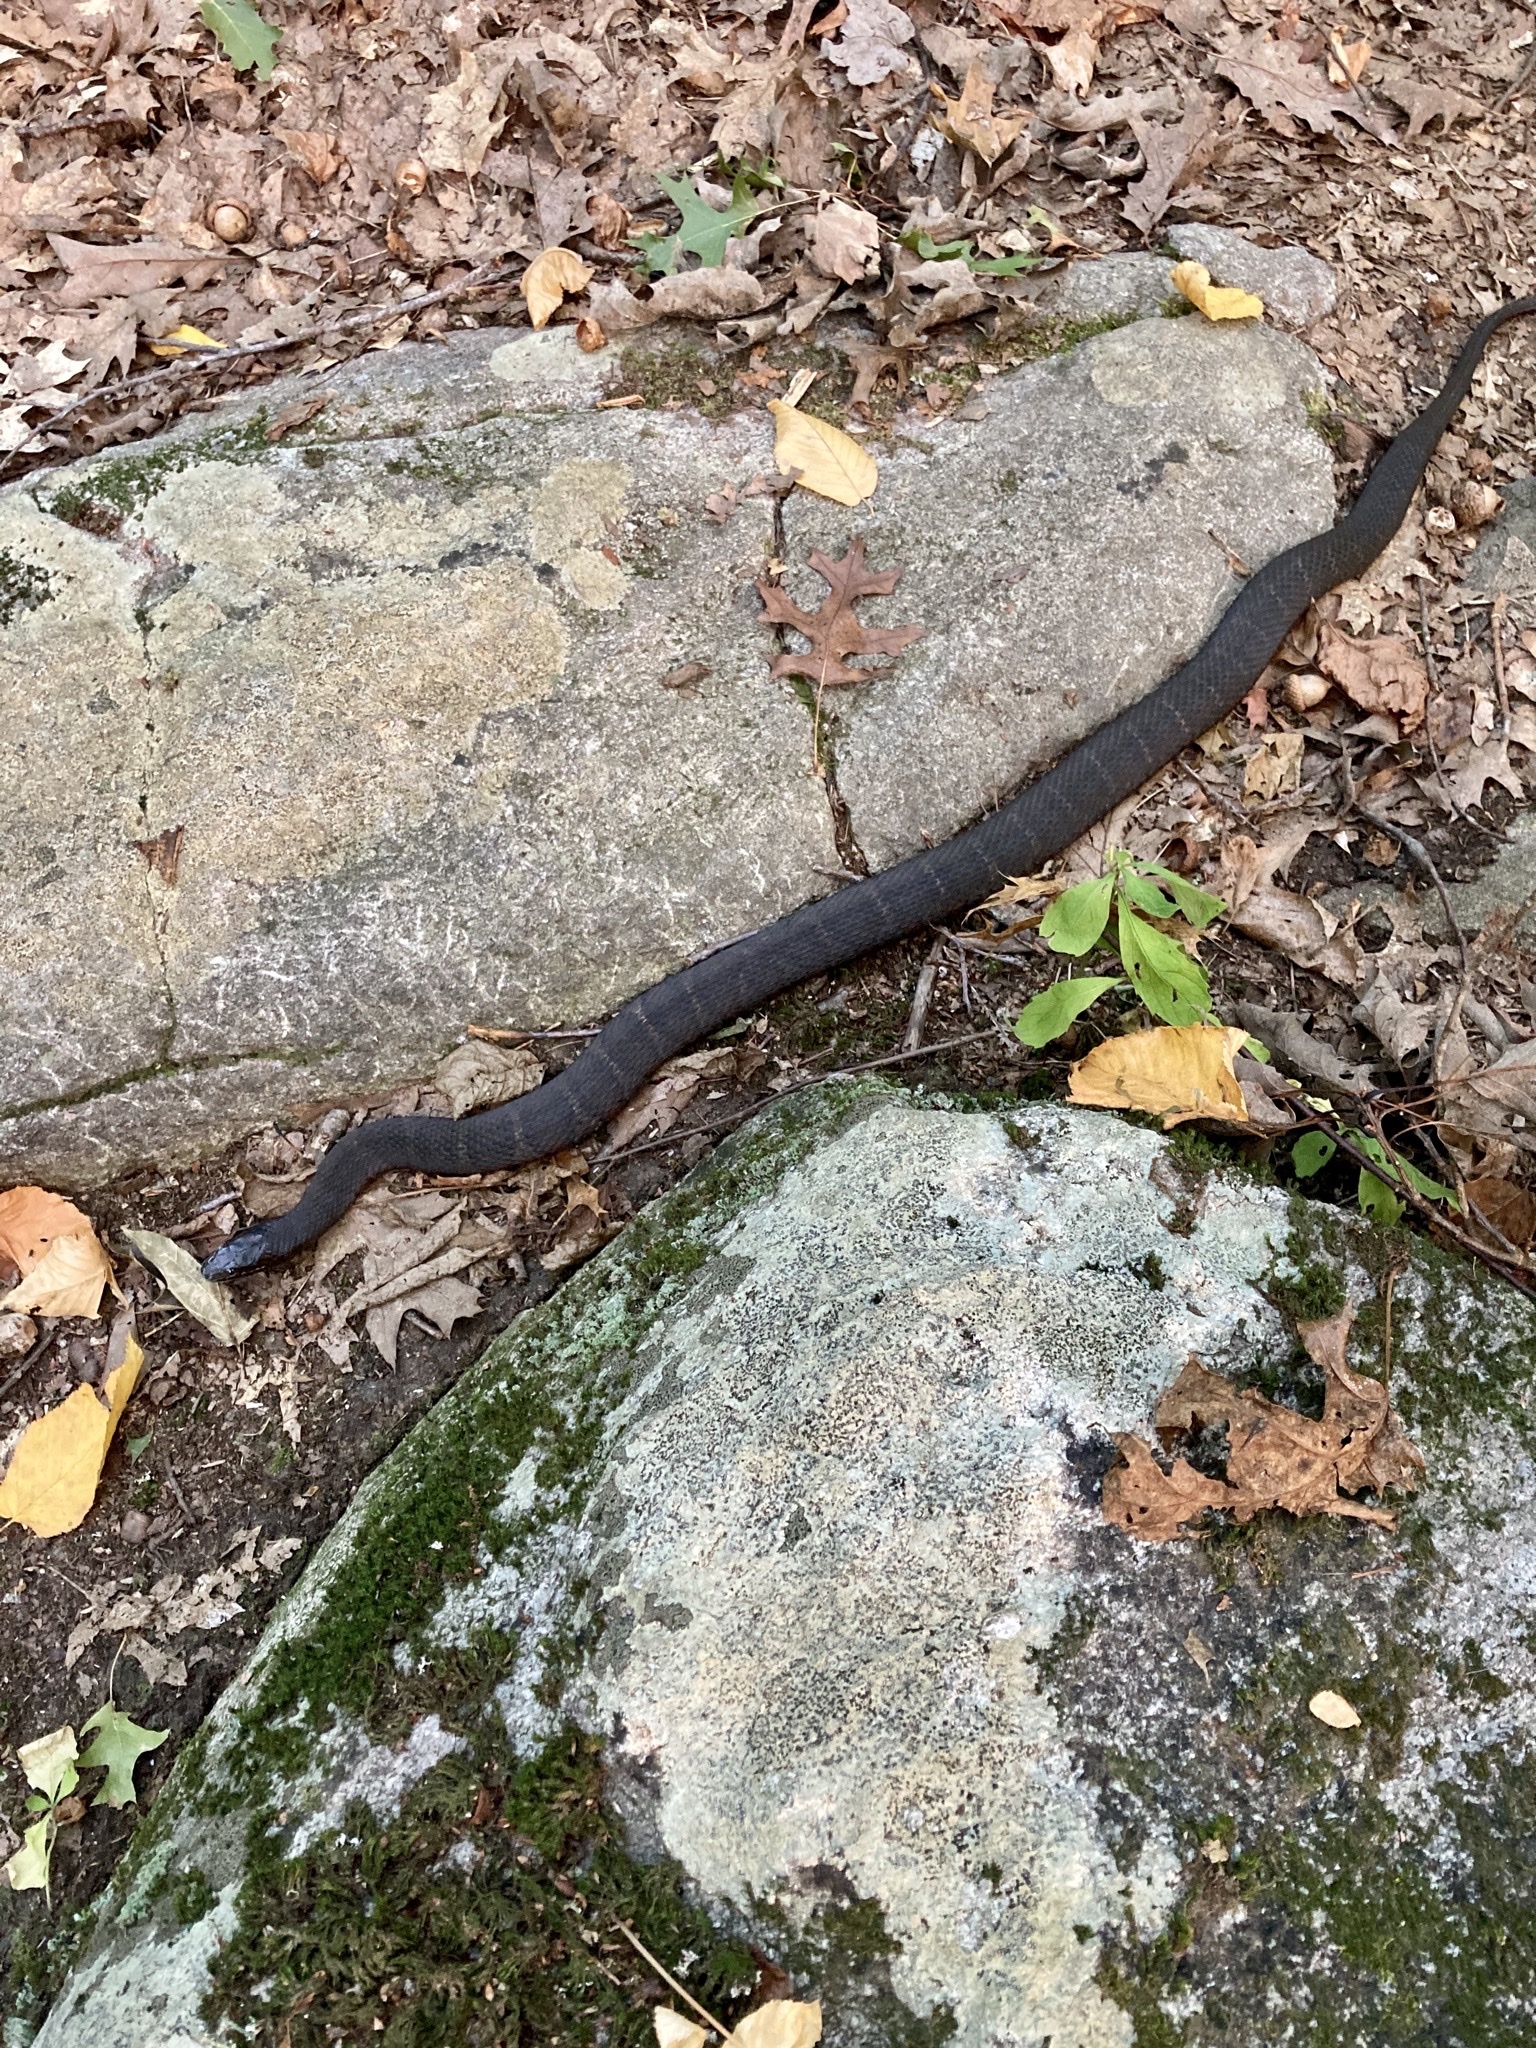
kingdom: Animalia
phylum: Chordata
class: Squamata
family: Colubridae
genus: Nerodia
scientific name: Nerodia sipedon
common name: Northern water snake
